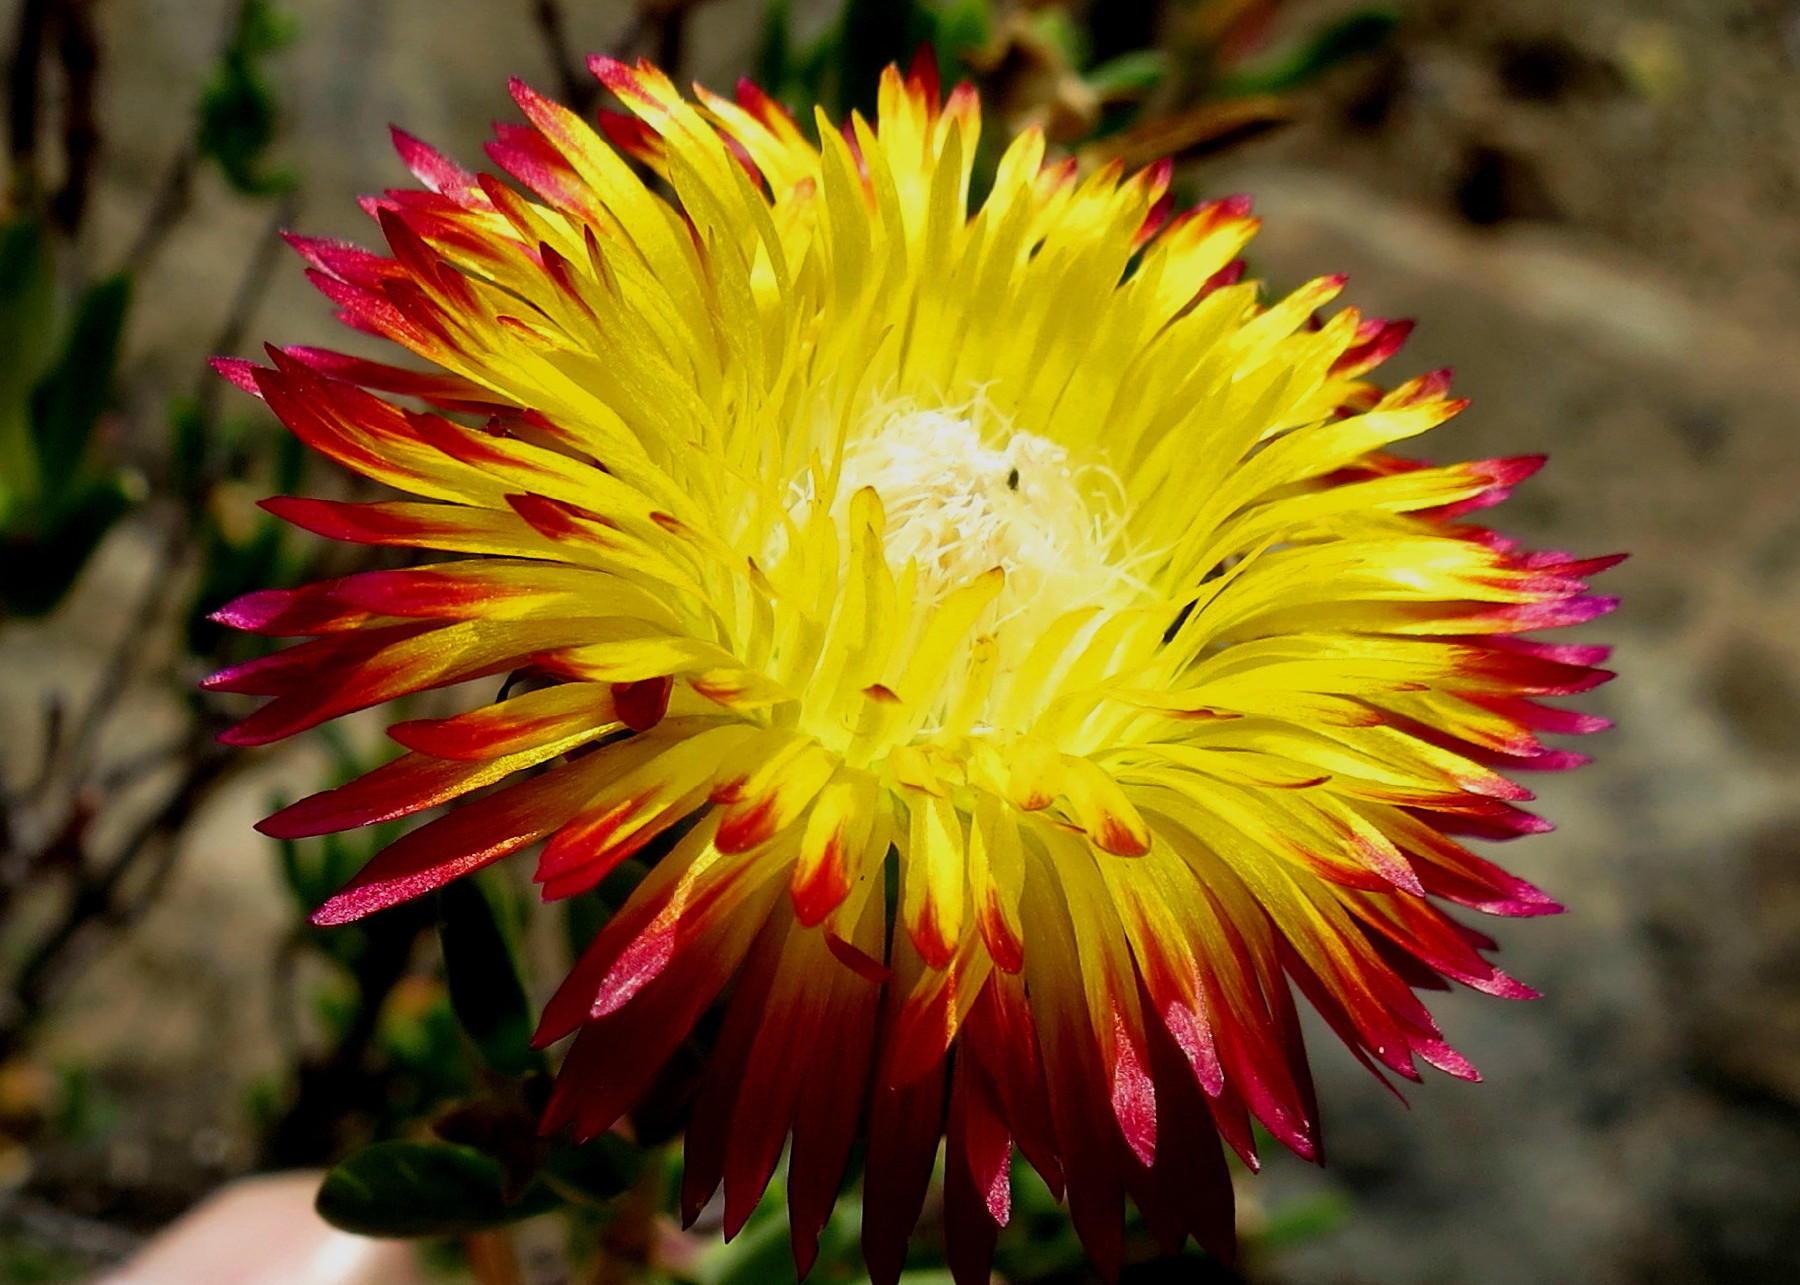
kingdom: Plantae
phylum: Tracheophyta
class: Magnoliopsida
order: Caryophyllales
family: Aizoaceae
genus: Drosanthemum
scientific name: Drosanthemum bicolor
